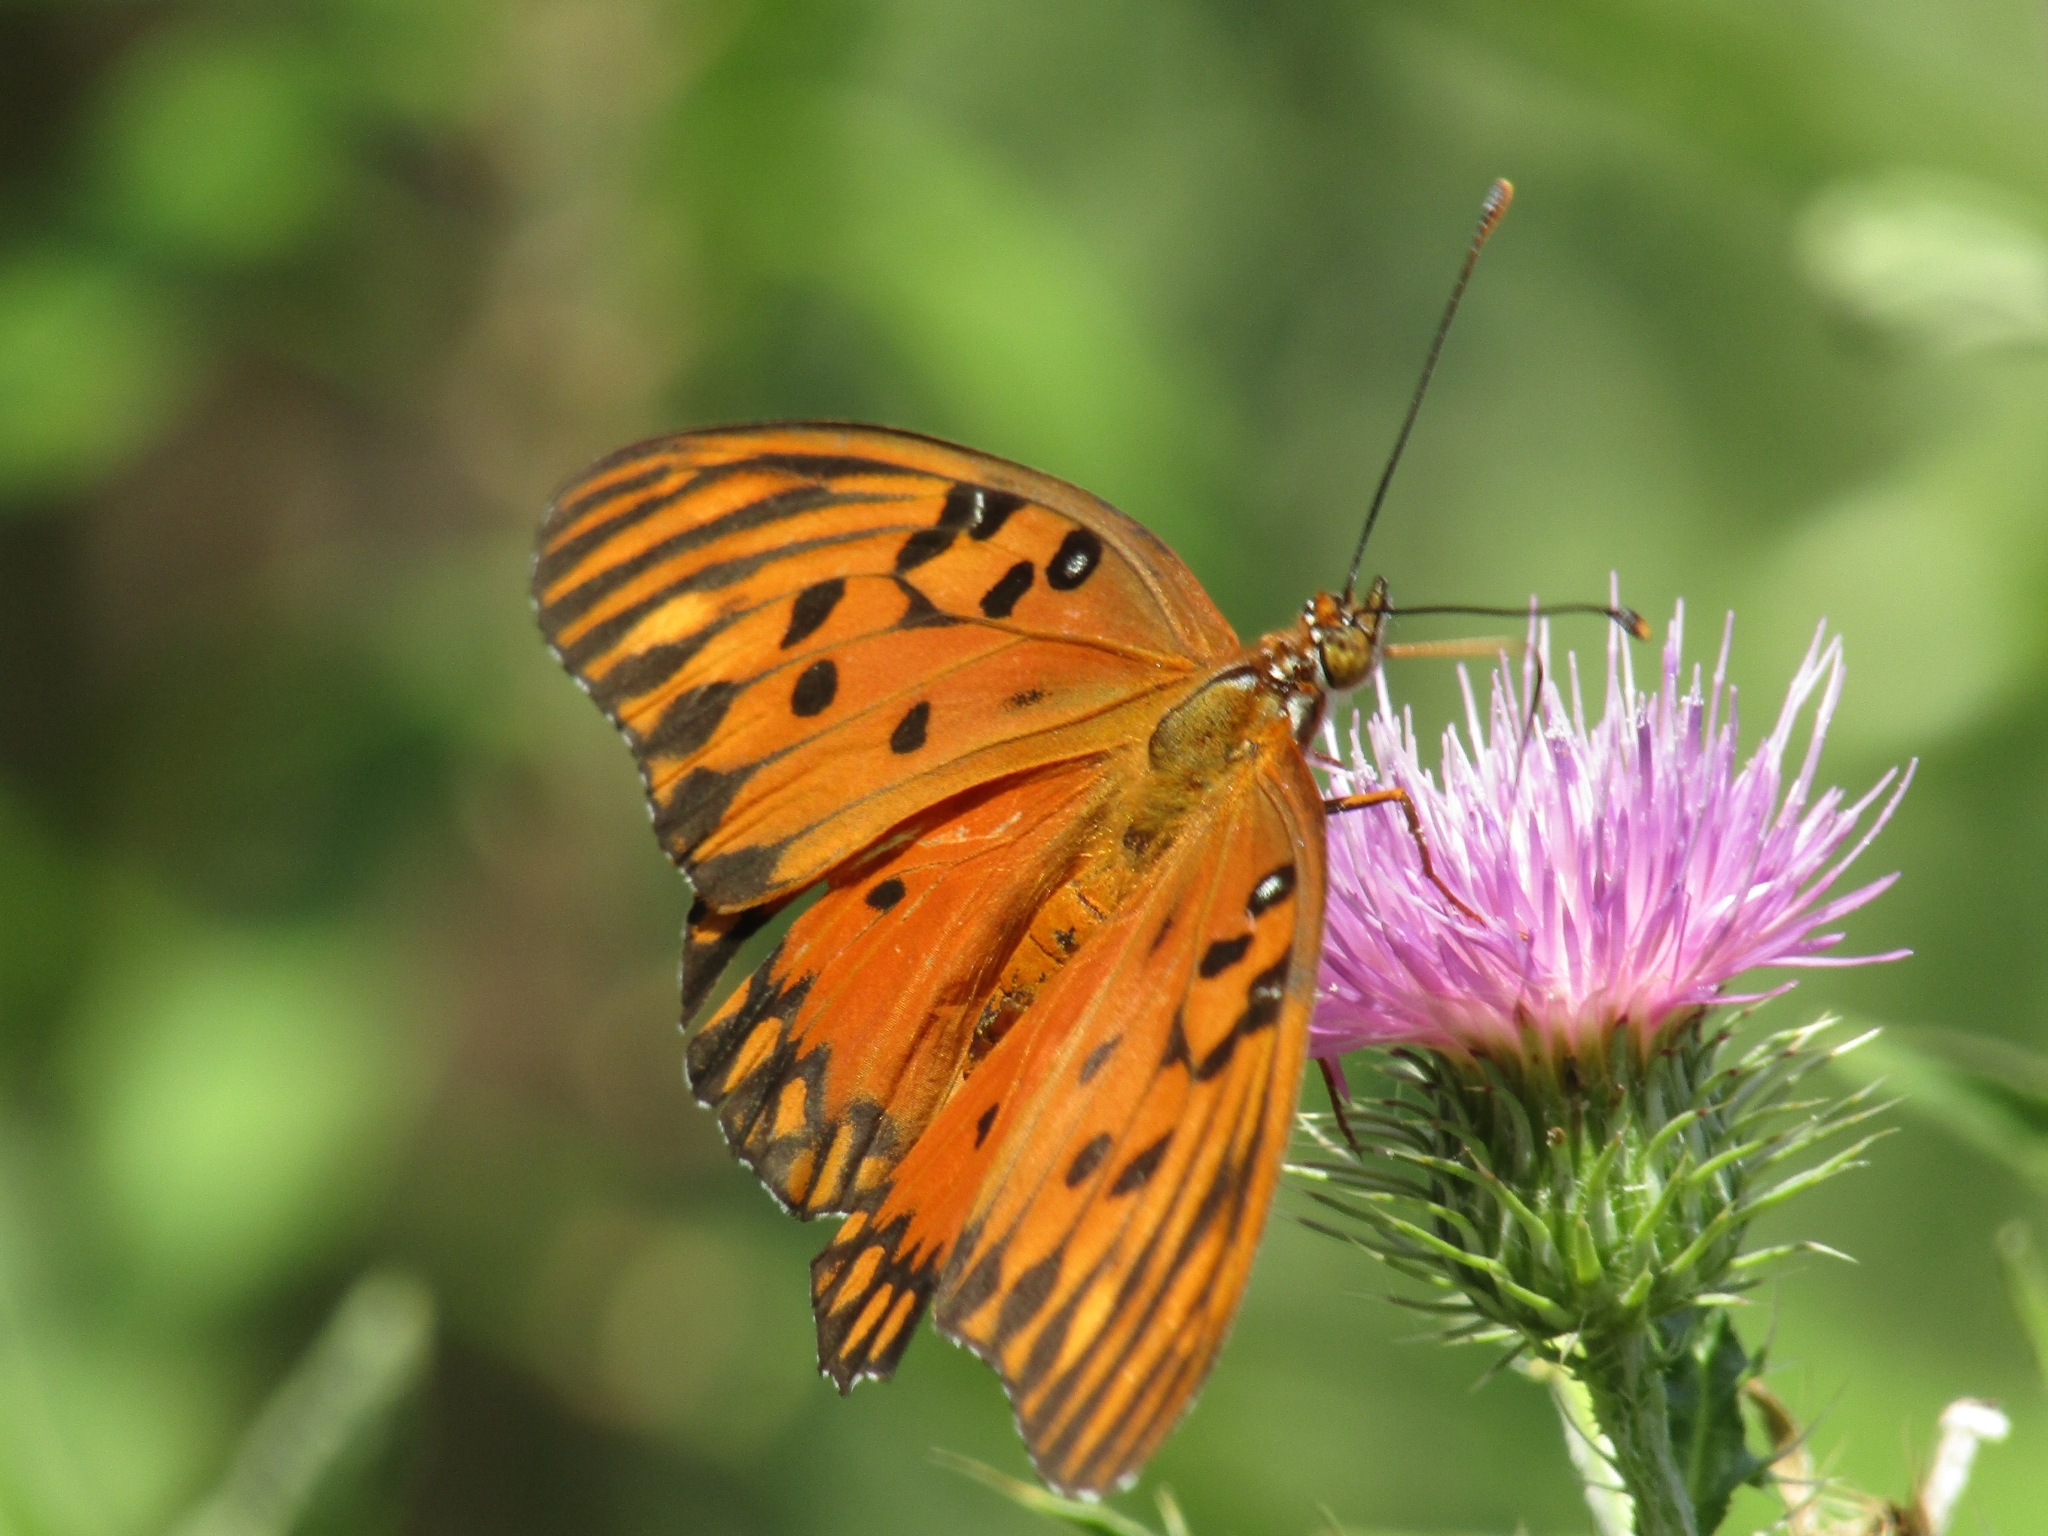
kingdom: Animalia
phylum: Arthropoda
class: Insecta
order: Lepidoptera
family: Nymphalidae
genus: Dione
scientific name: Dione vanillae
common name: Gulf fritillary
